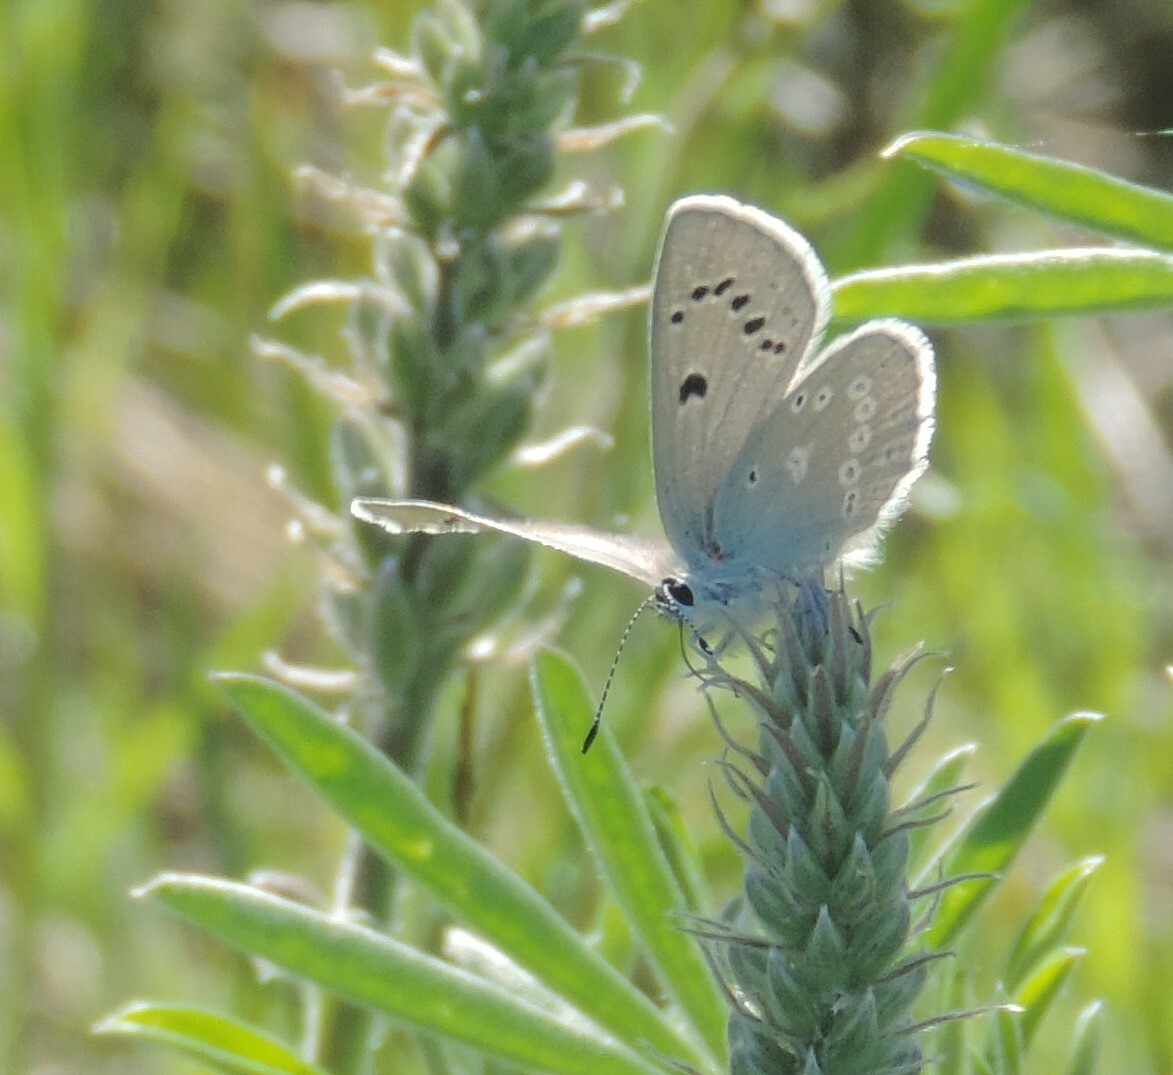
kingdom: Animalia
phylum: Arthropoda
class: Insecta
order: Lepidoptera
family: Lycaenidae
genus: Icaricia
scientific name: Icaricia icarioides
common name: Boisduval's blue
